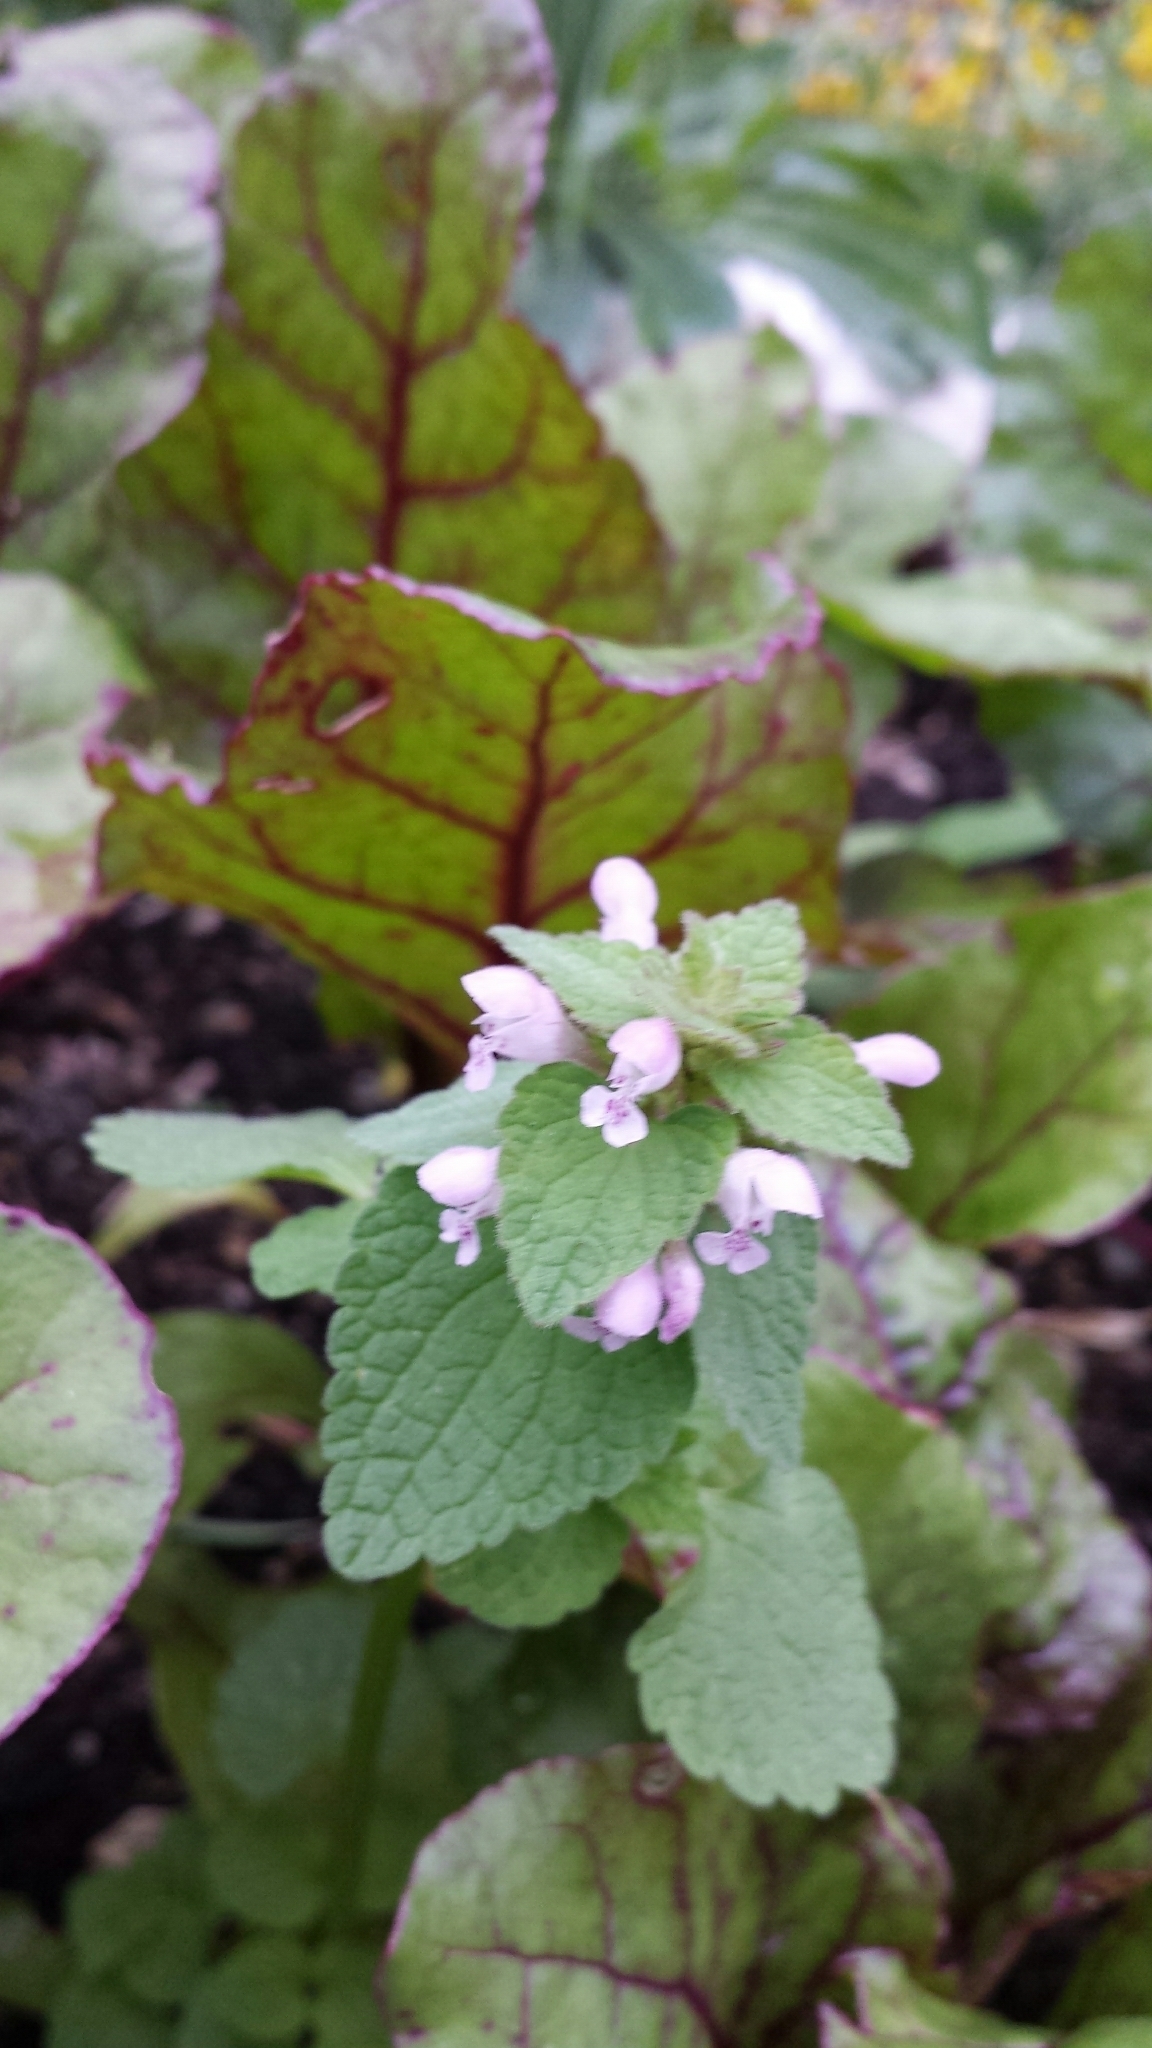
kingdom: Plantae
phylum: Tracheophyta
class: Magnoliopsida
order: Lamiales
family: Lamiaceae
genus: Lamium
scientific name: Lamium purpureum
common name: Red dead-nettle
